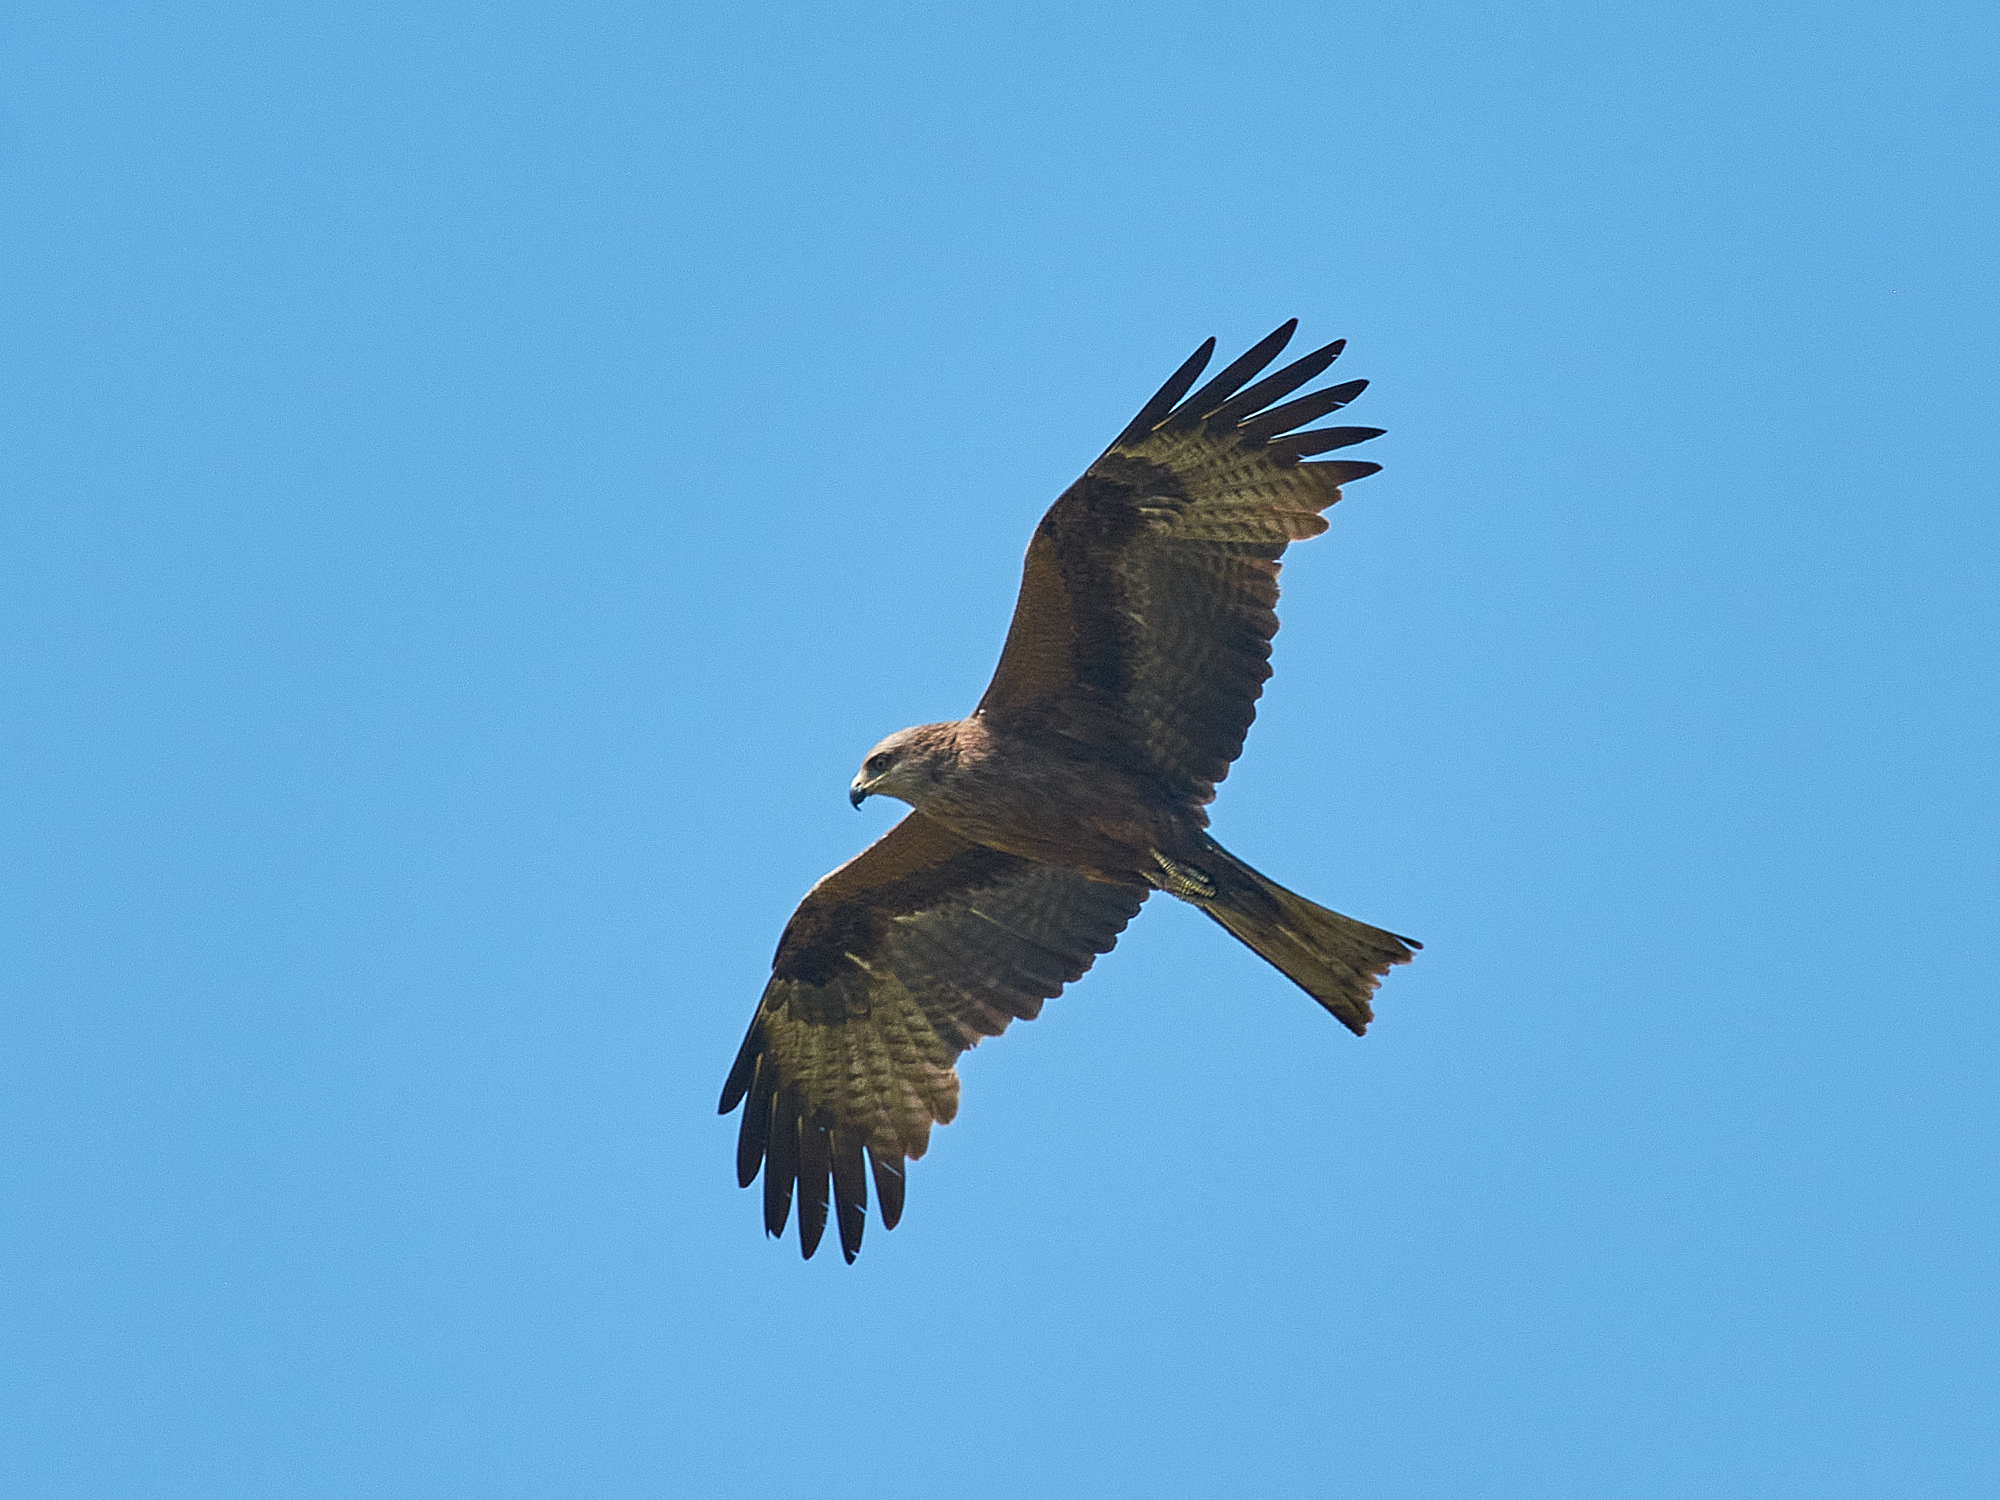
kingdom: Animalia
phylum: Chordata
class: Aves
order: Accipitriformes
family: Accipitridae
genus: Milvus
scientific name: Milvus migrans
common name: Black kite
